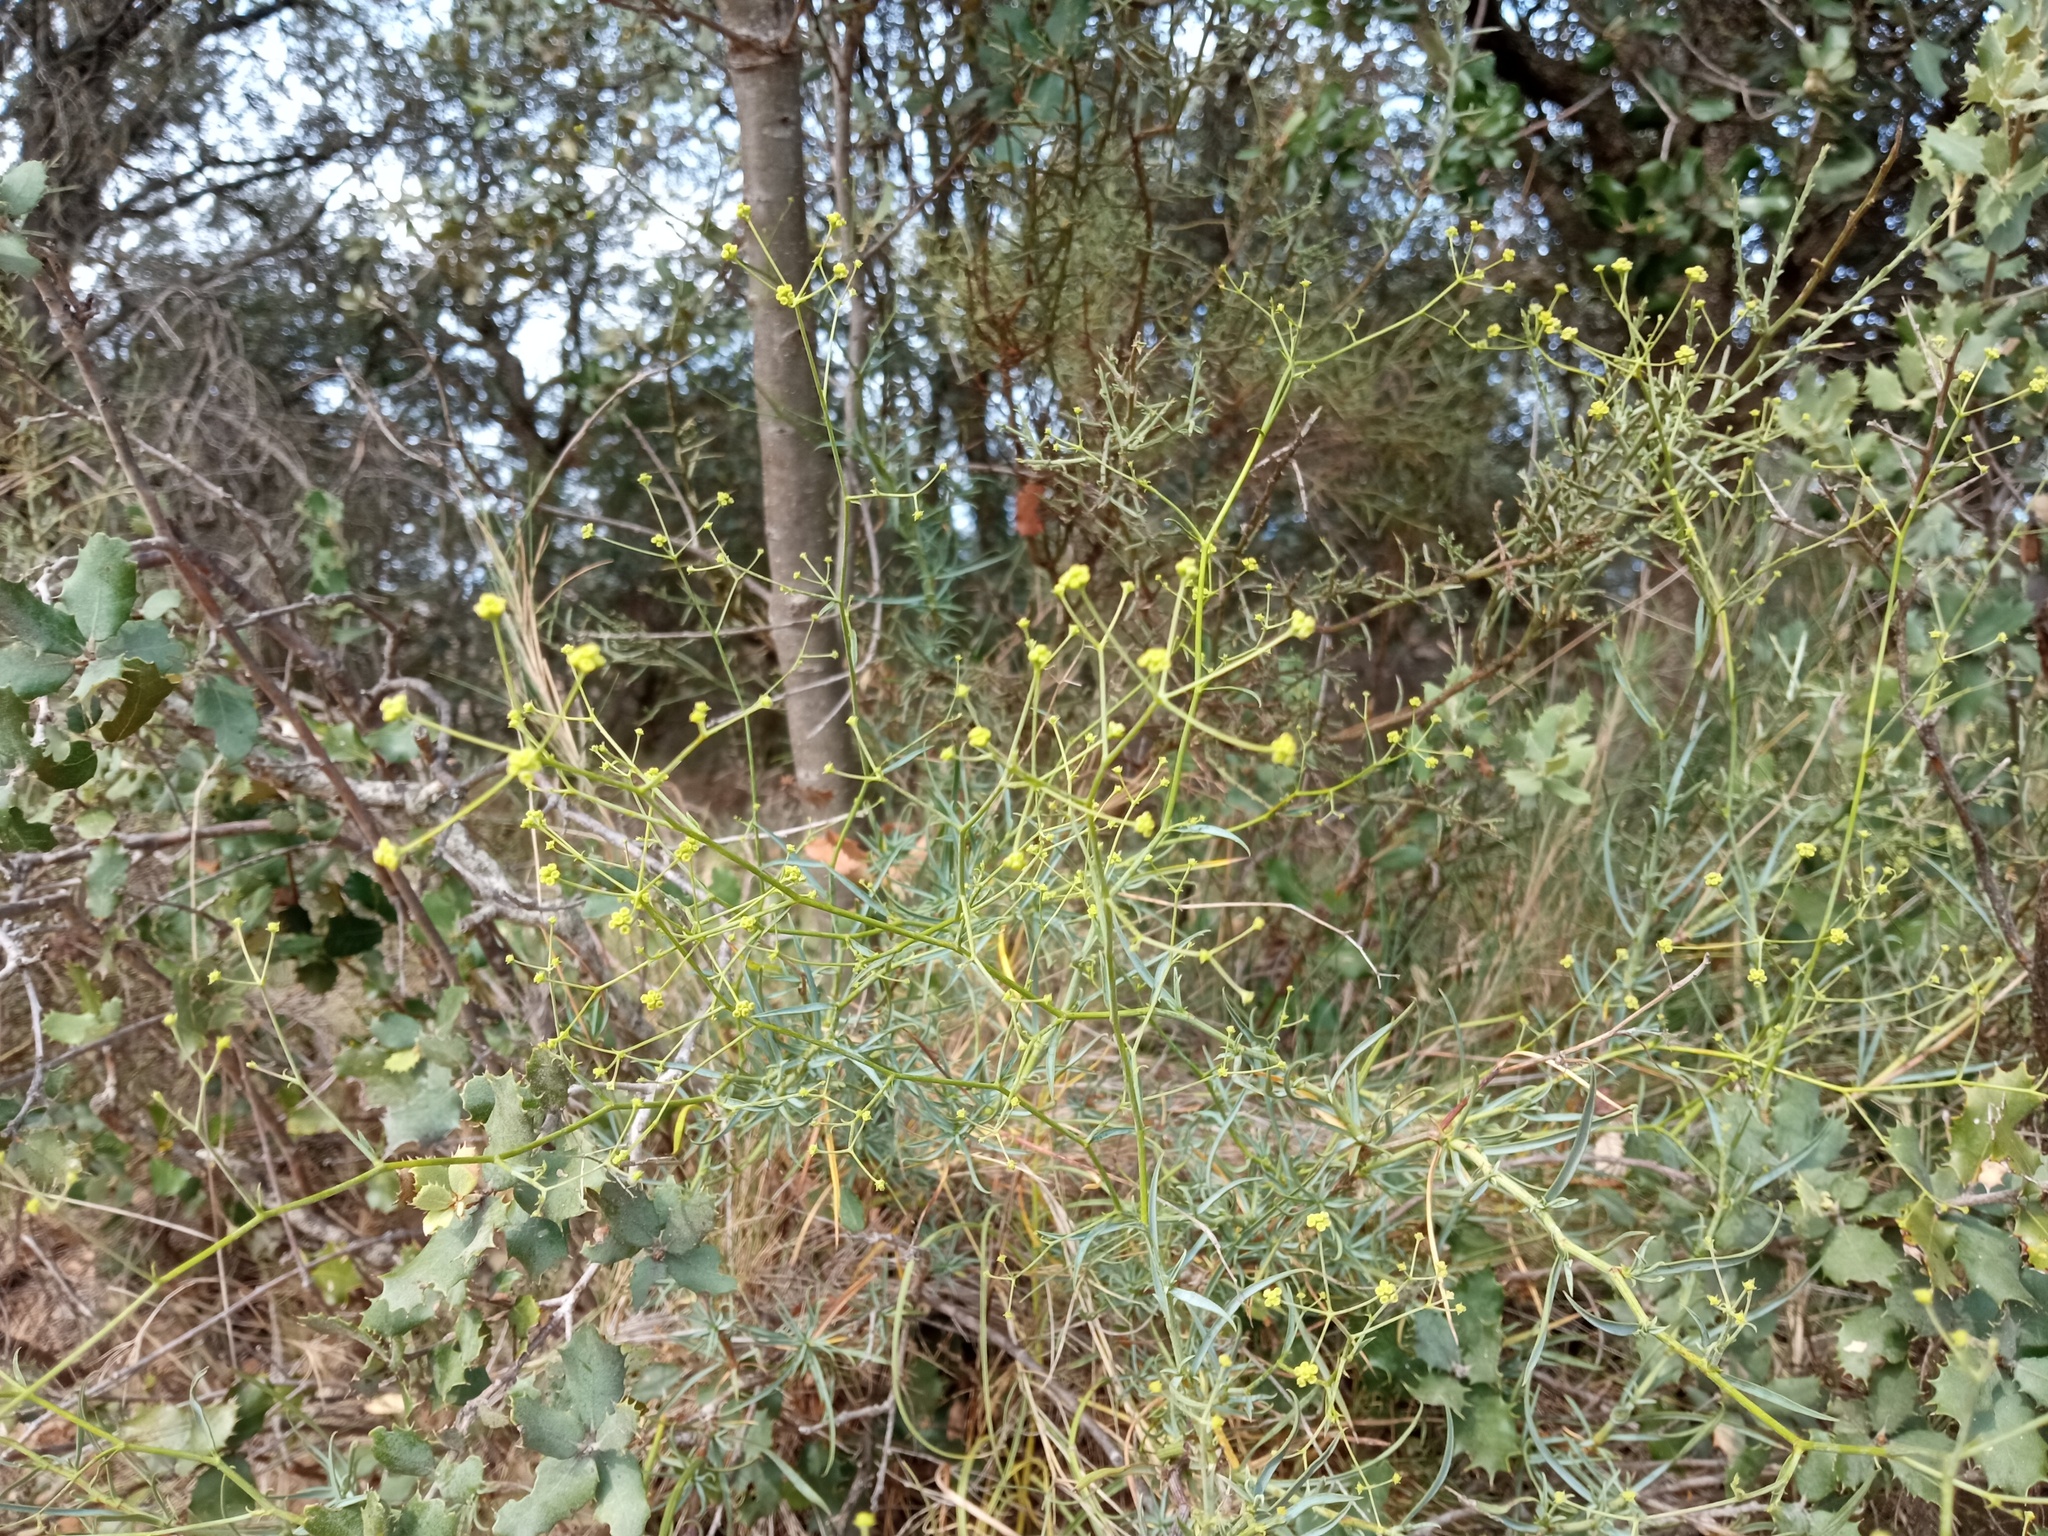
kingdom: Plantae
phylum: Tracheophyta
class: Magnoliopsida
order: Apiales
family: Apiaceae
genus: Bupleurum
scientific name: Bupleurum fruticescens
